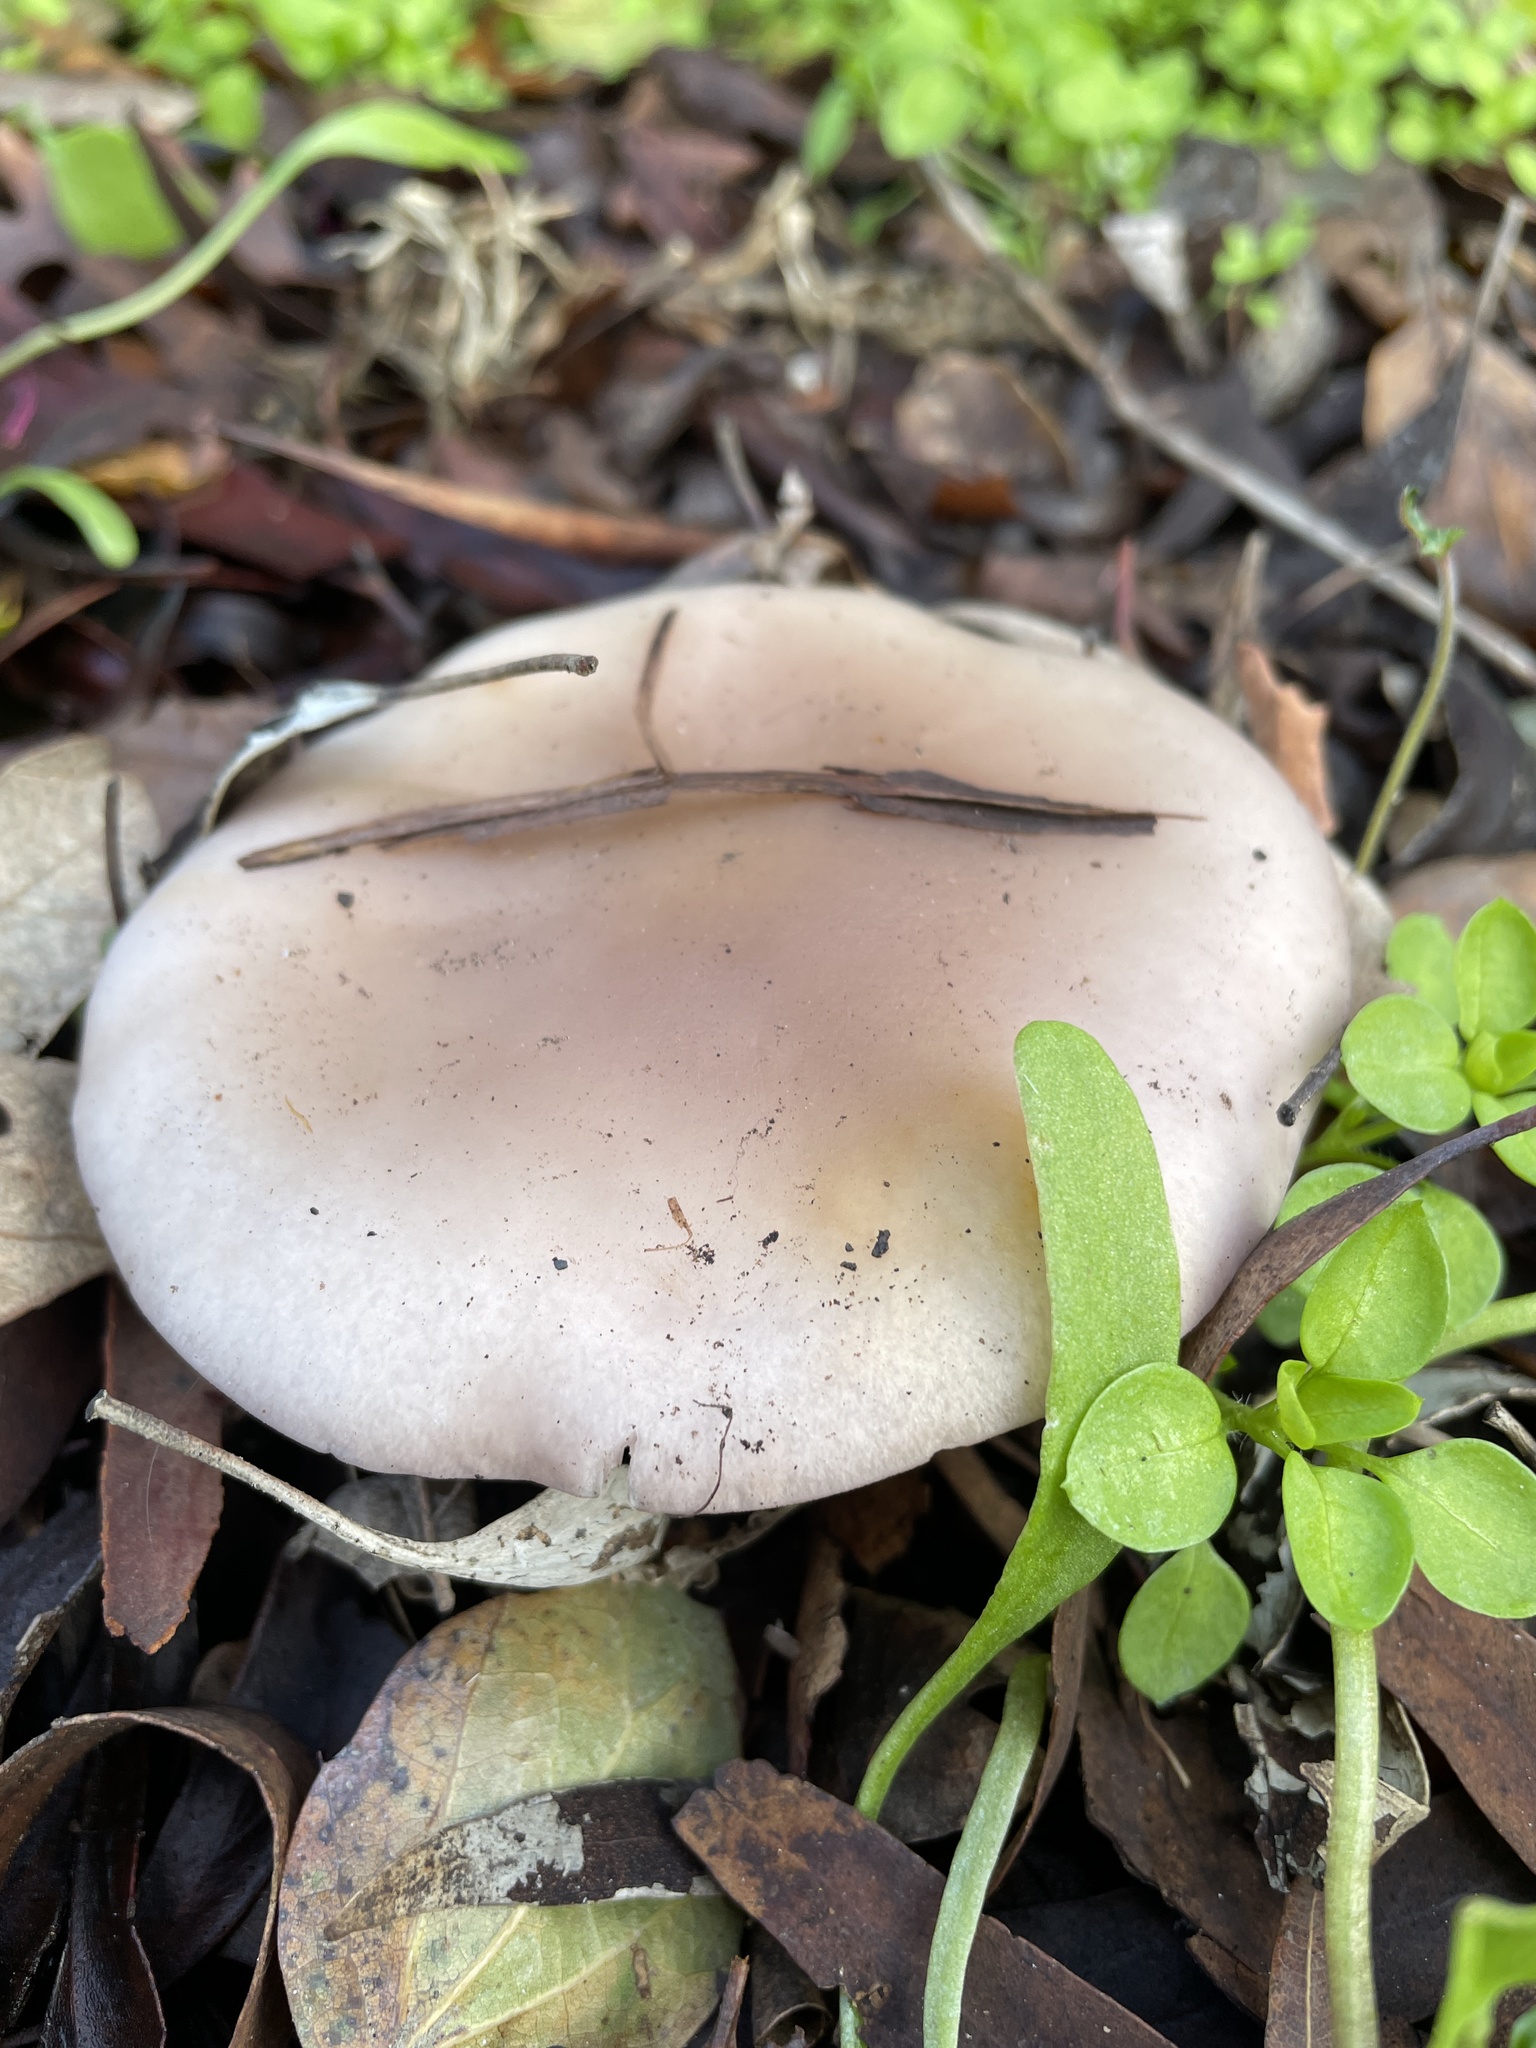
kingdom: Fungi
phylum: Basidiomycota
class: Agaricomycetes
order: Agaricales
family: Tricholomataceae
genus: Collybia
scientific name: Collybia
